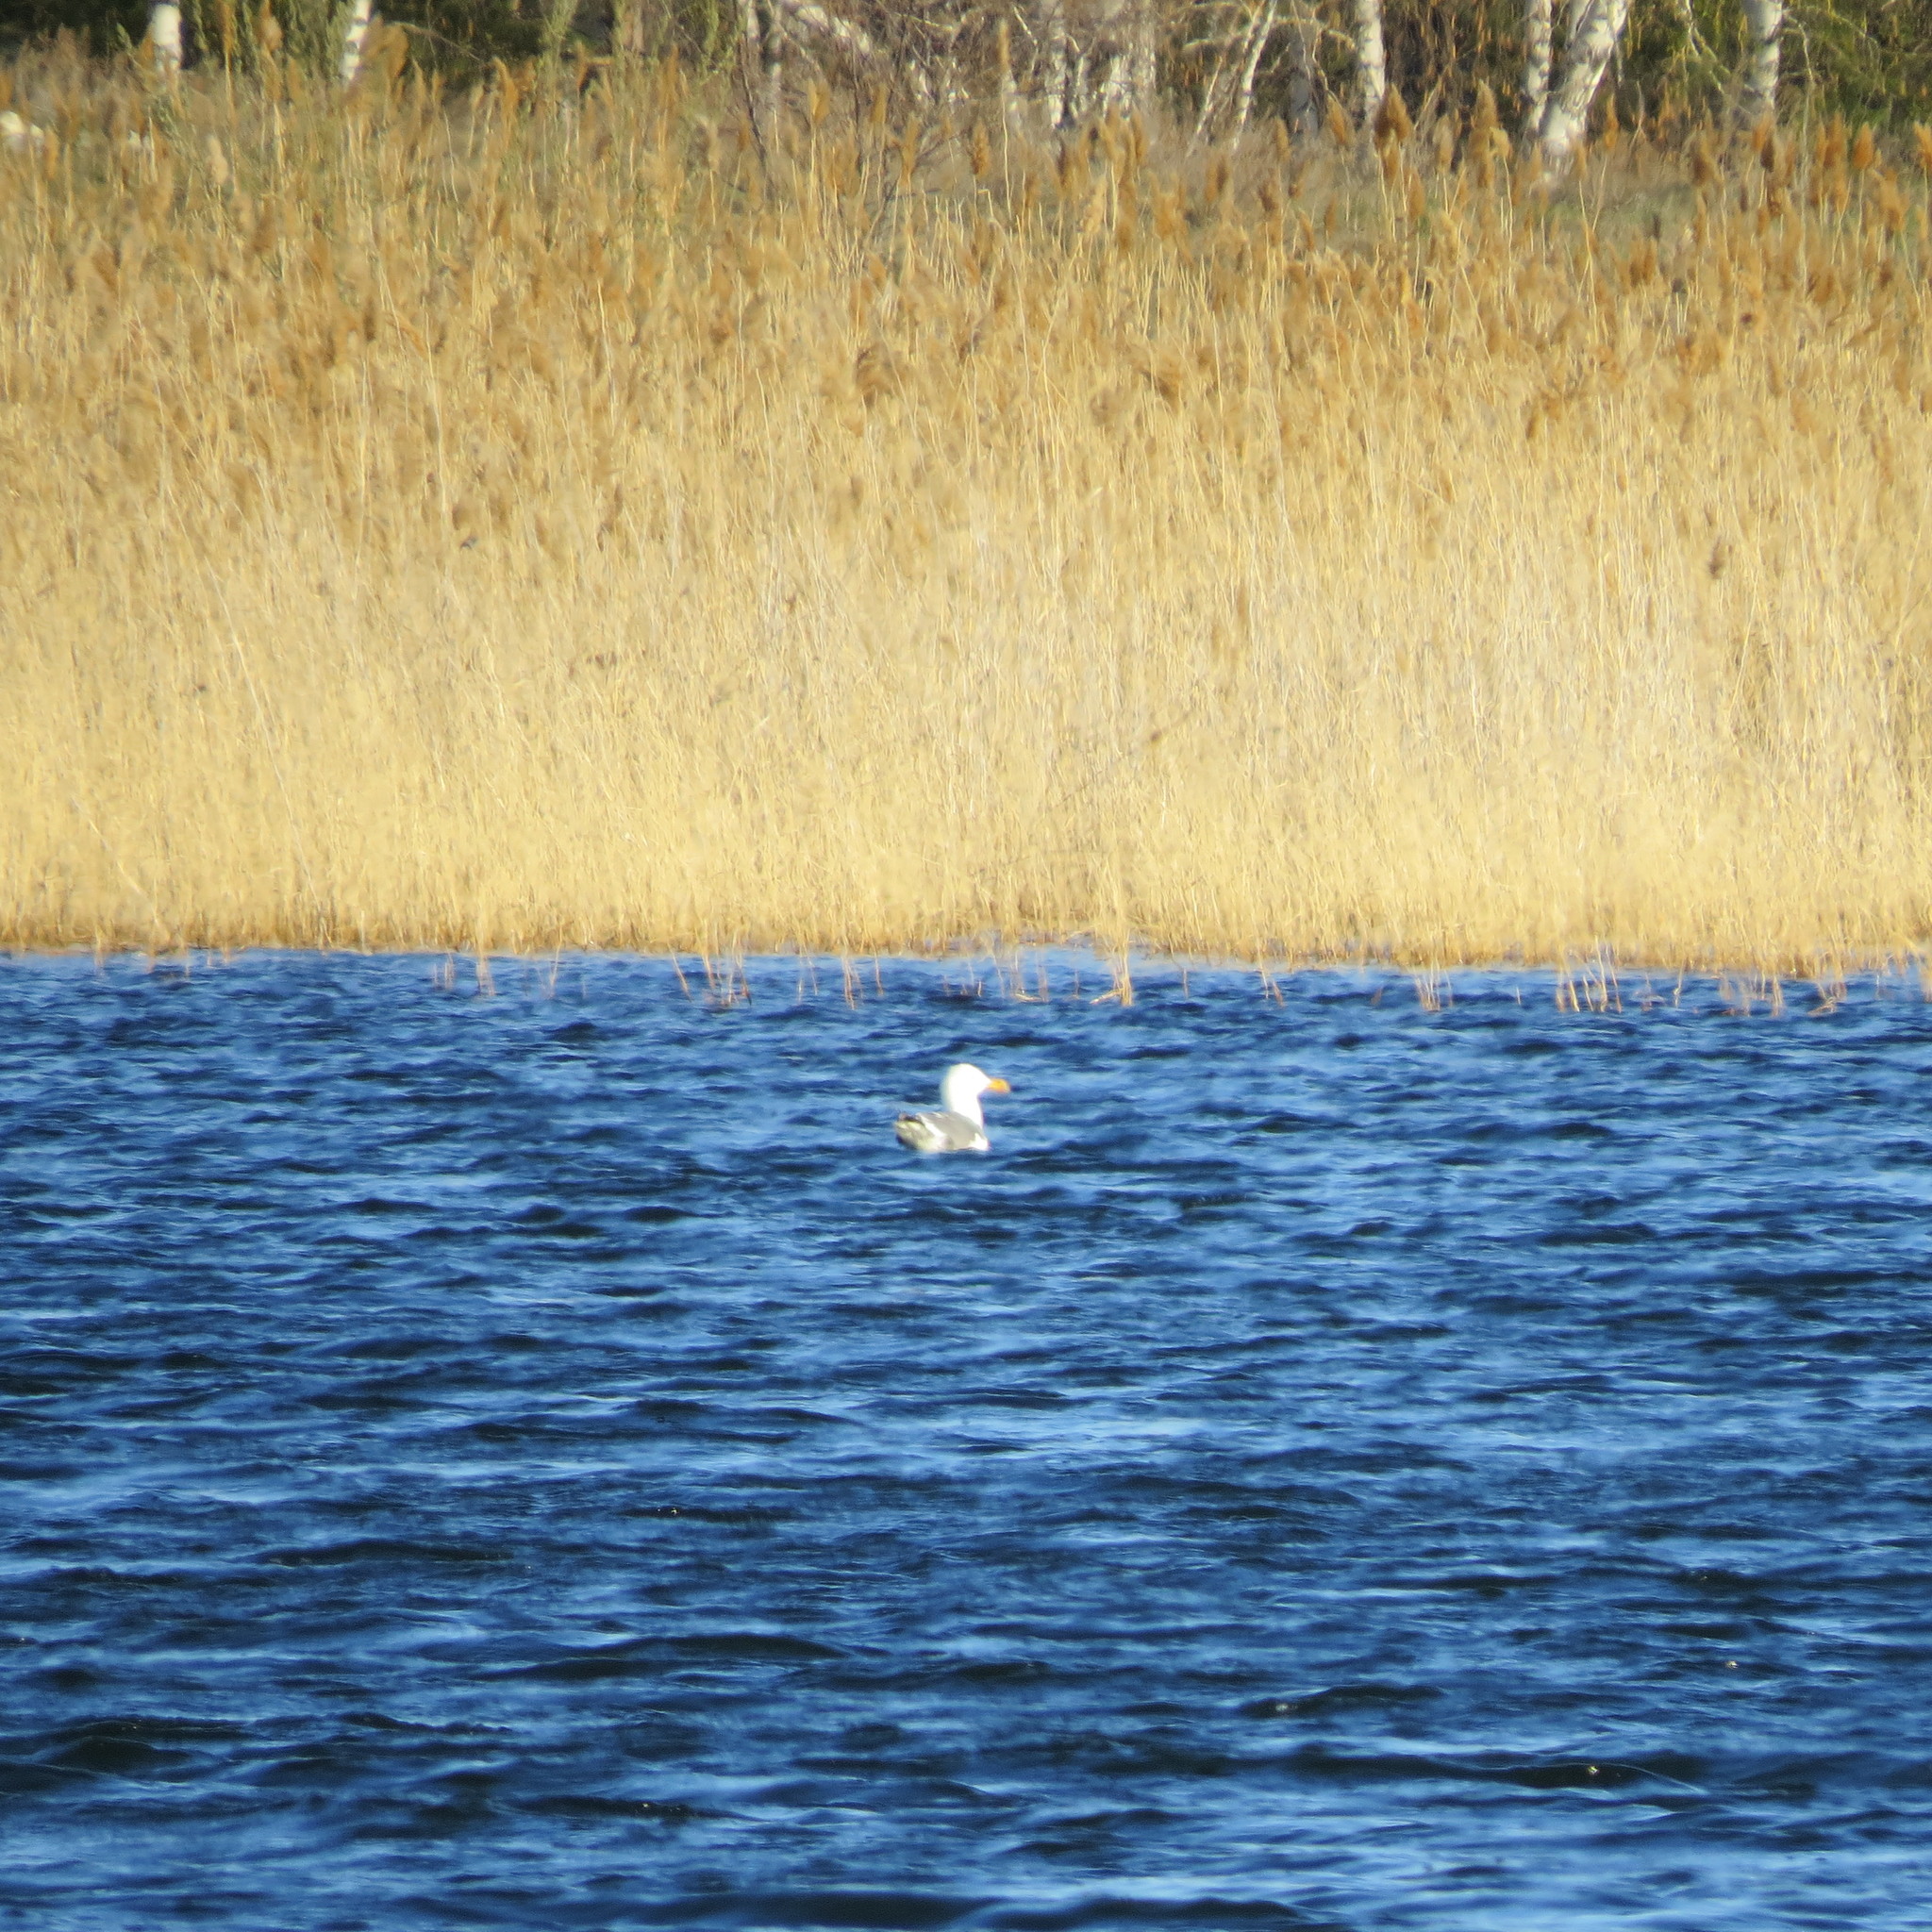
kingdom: Animalia
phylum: Chordata
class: Aves
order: Charadriiformes
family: Laridae
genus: Larus
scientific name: Larus fuscus
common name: Lesser black-backed gull
